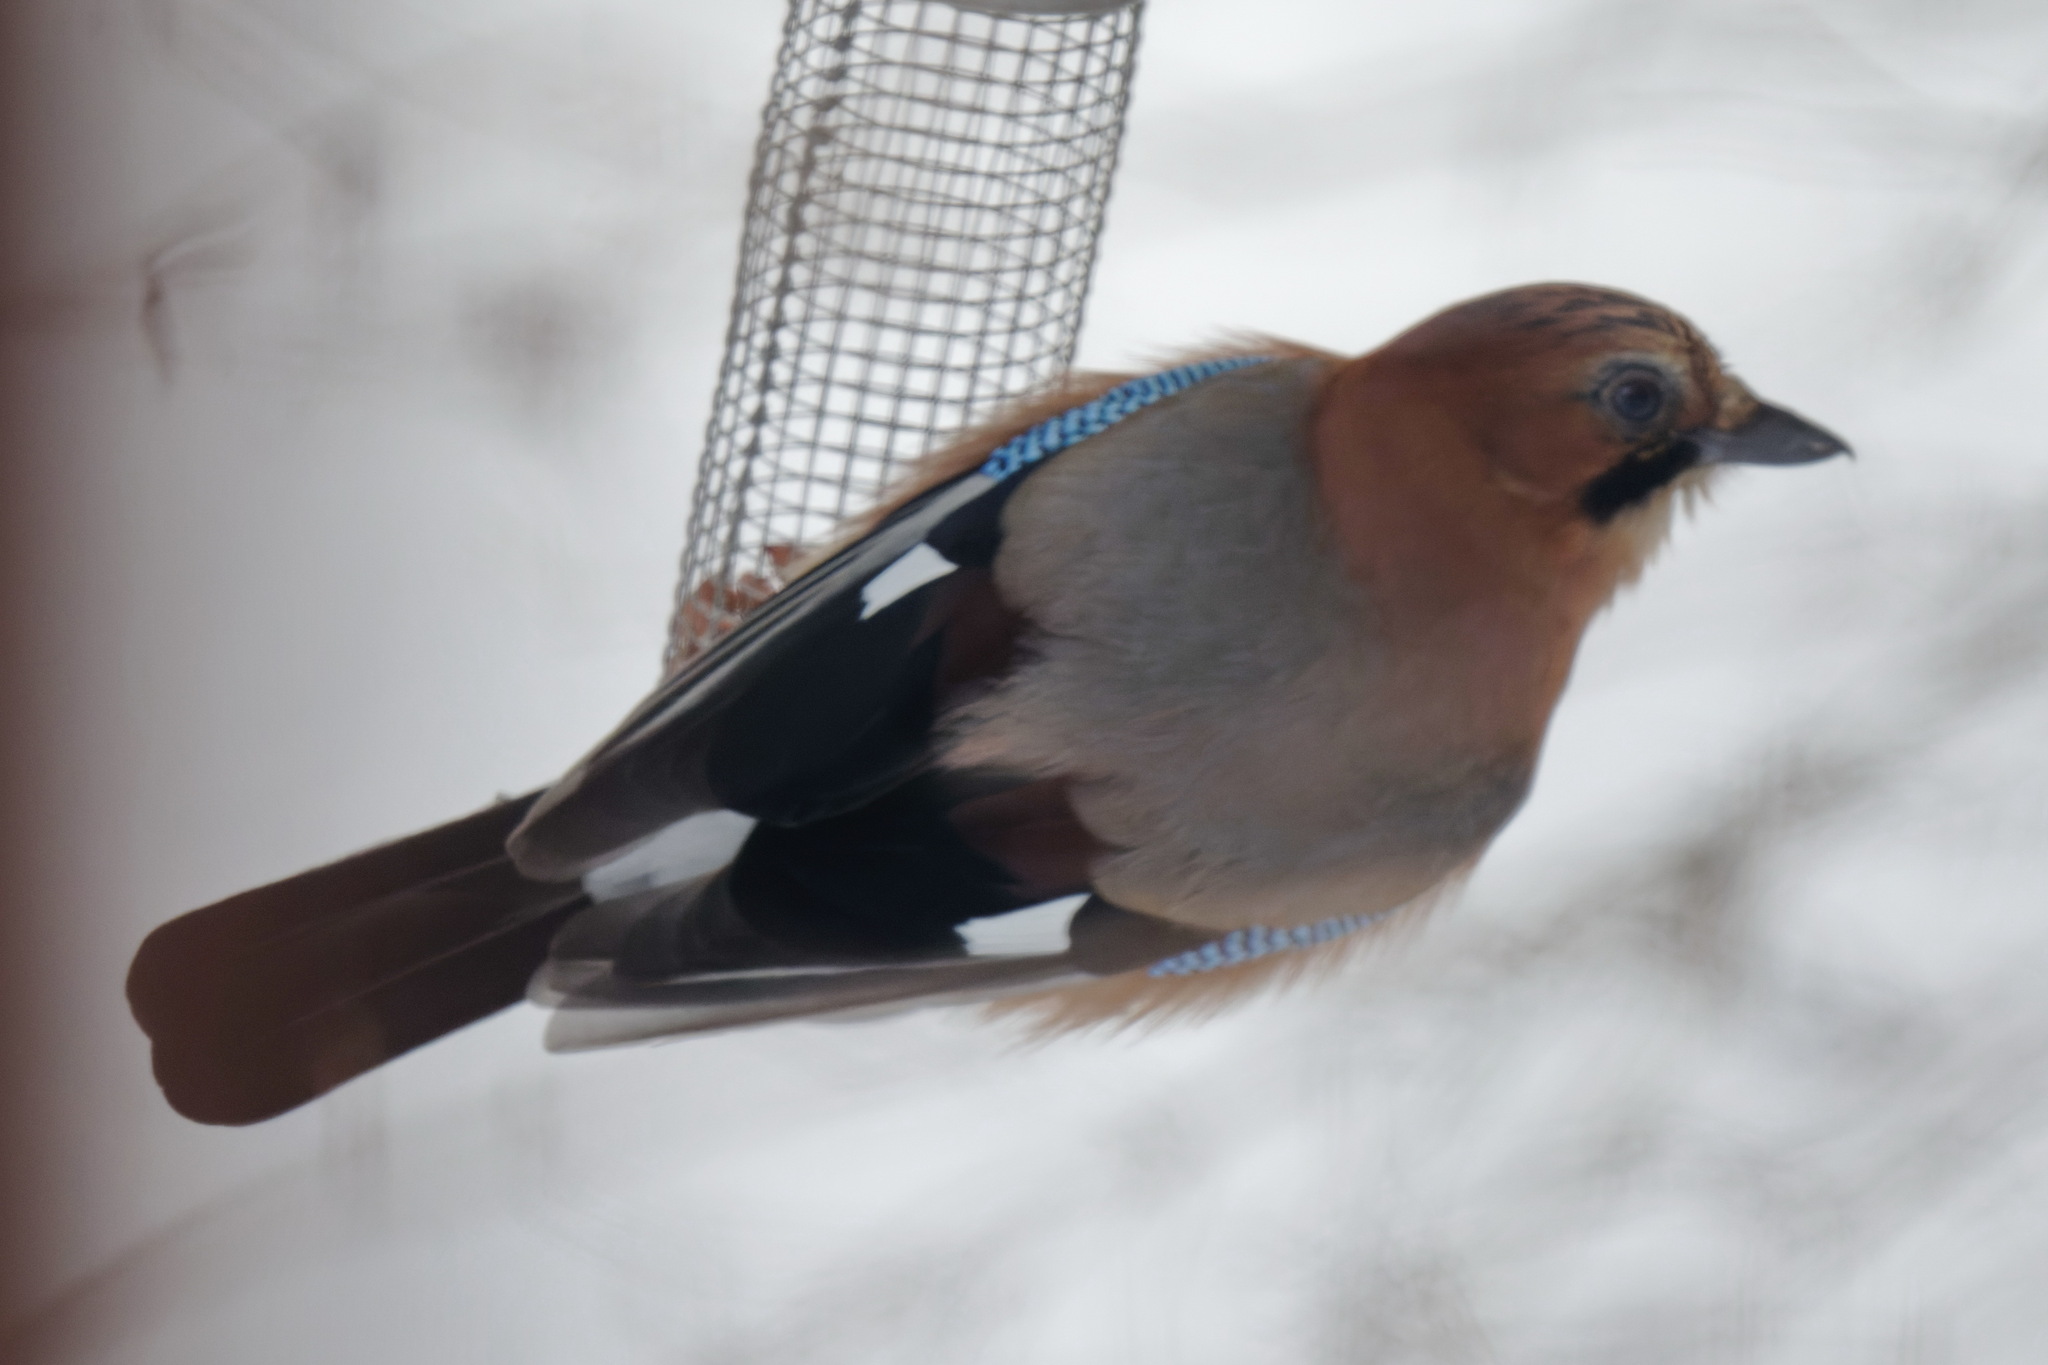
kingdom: Animalia
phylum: Chordata
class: Aves
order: Passeriformes
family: Corvidae
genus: Garrulus
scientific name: Garrulus glandarius
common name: Eurasian jay
